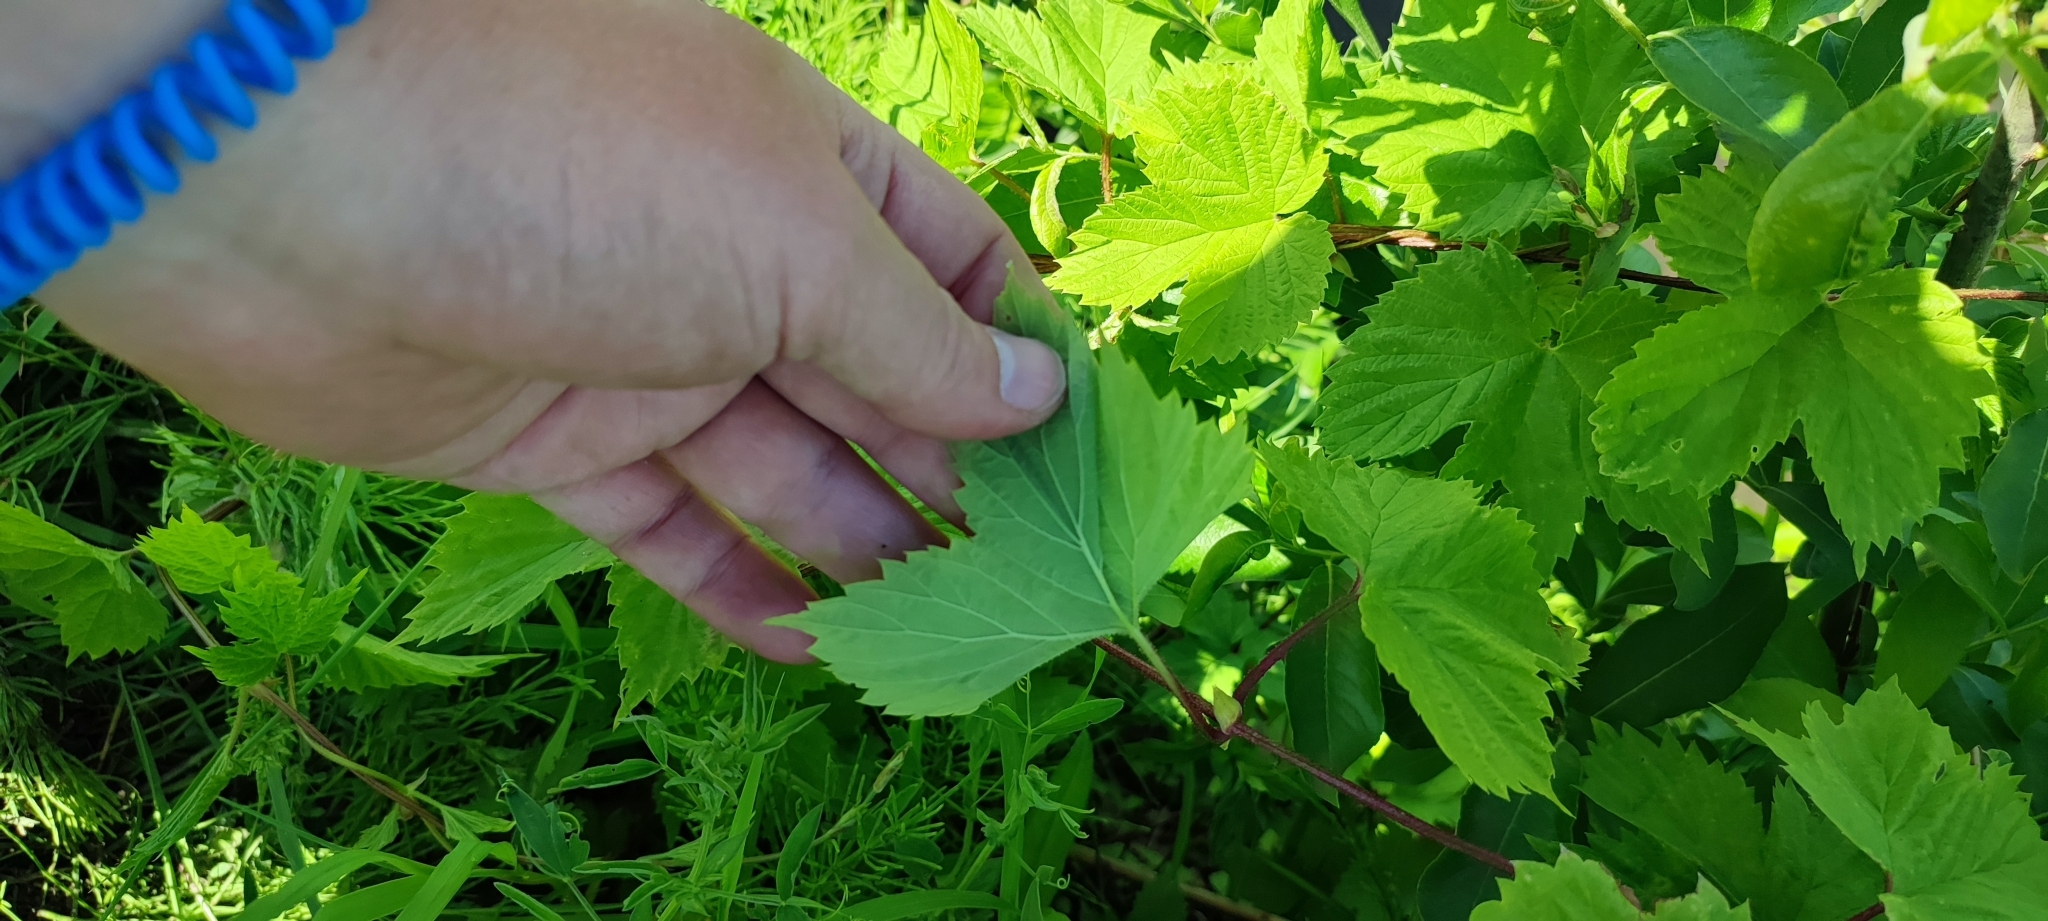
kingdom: Plantae
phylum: Tracheophyta
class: Magnoliopsida
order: Rosales
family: Cannabaceae
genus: Humulus
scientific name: Humulus lupulus
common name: Hop
